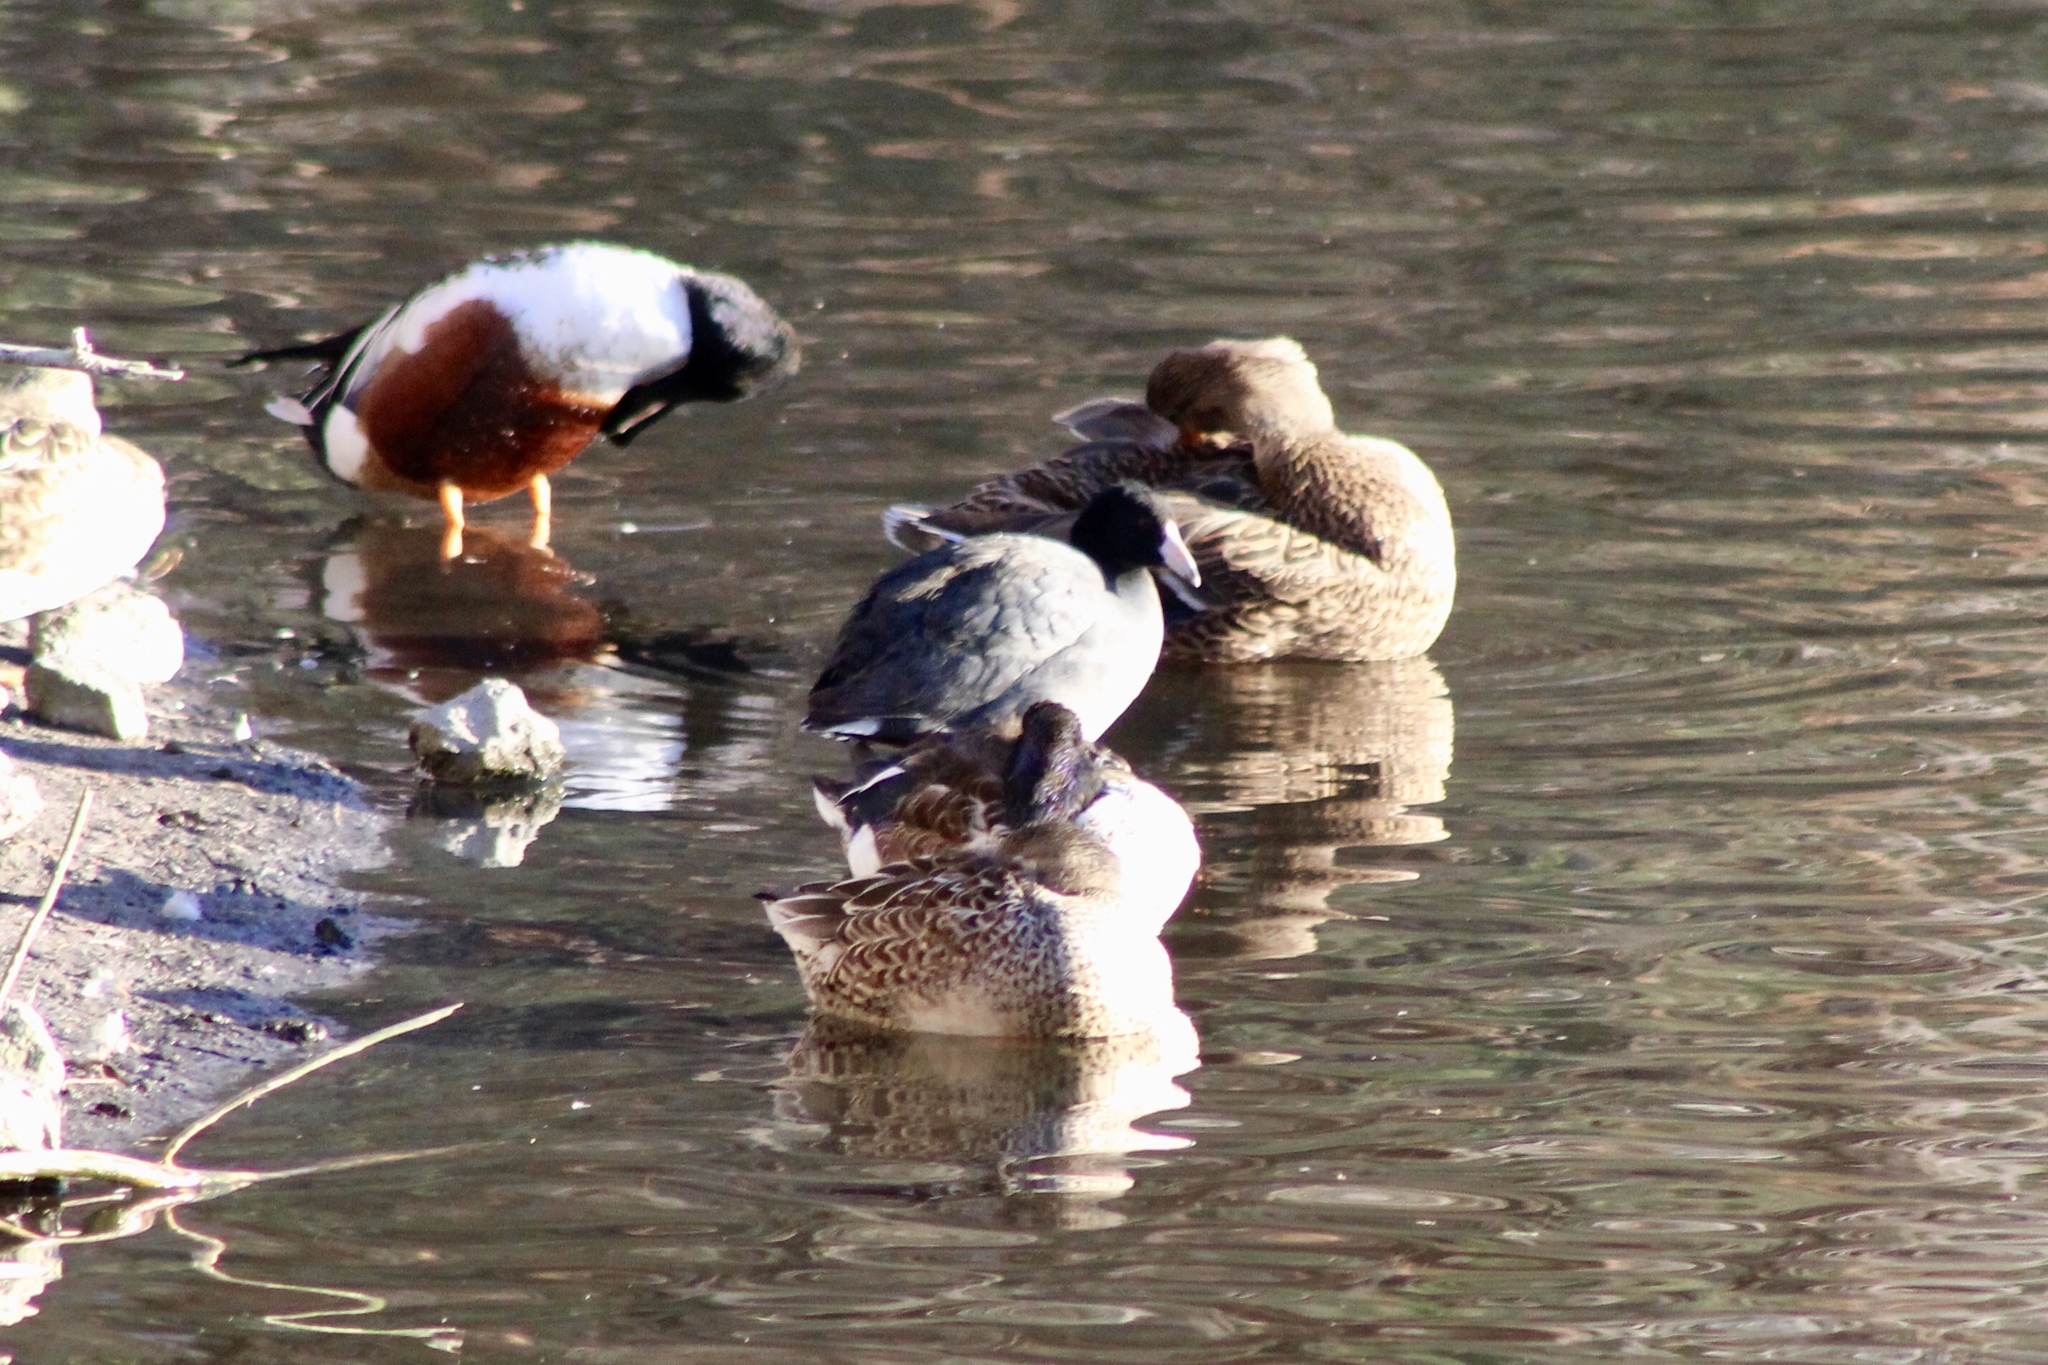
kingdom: Animalia
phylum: Chordata
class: Aves
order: Gruiformes
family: Rallidae
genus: Fulica
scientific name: Fulica americana
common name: American coot
